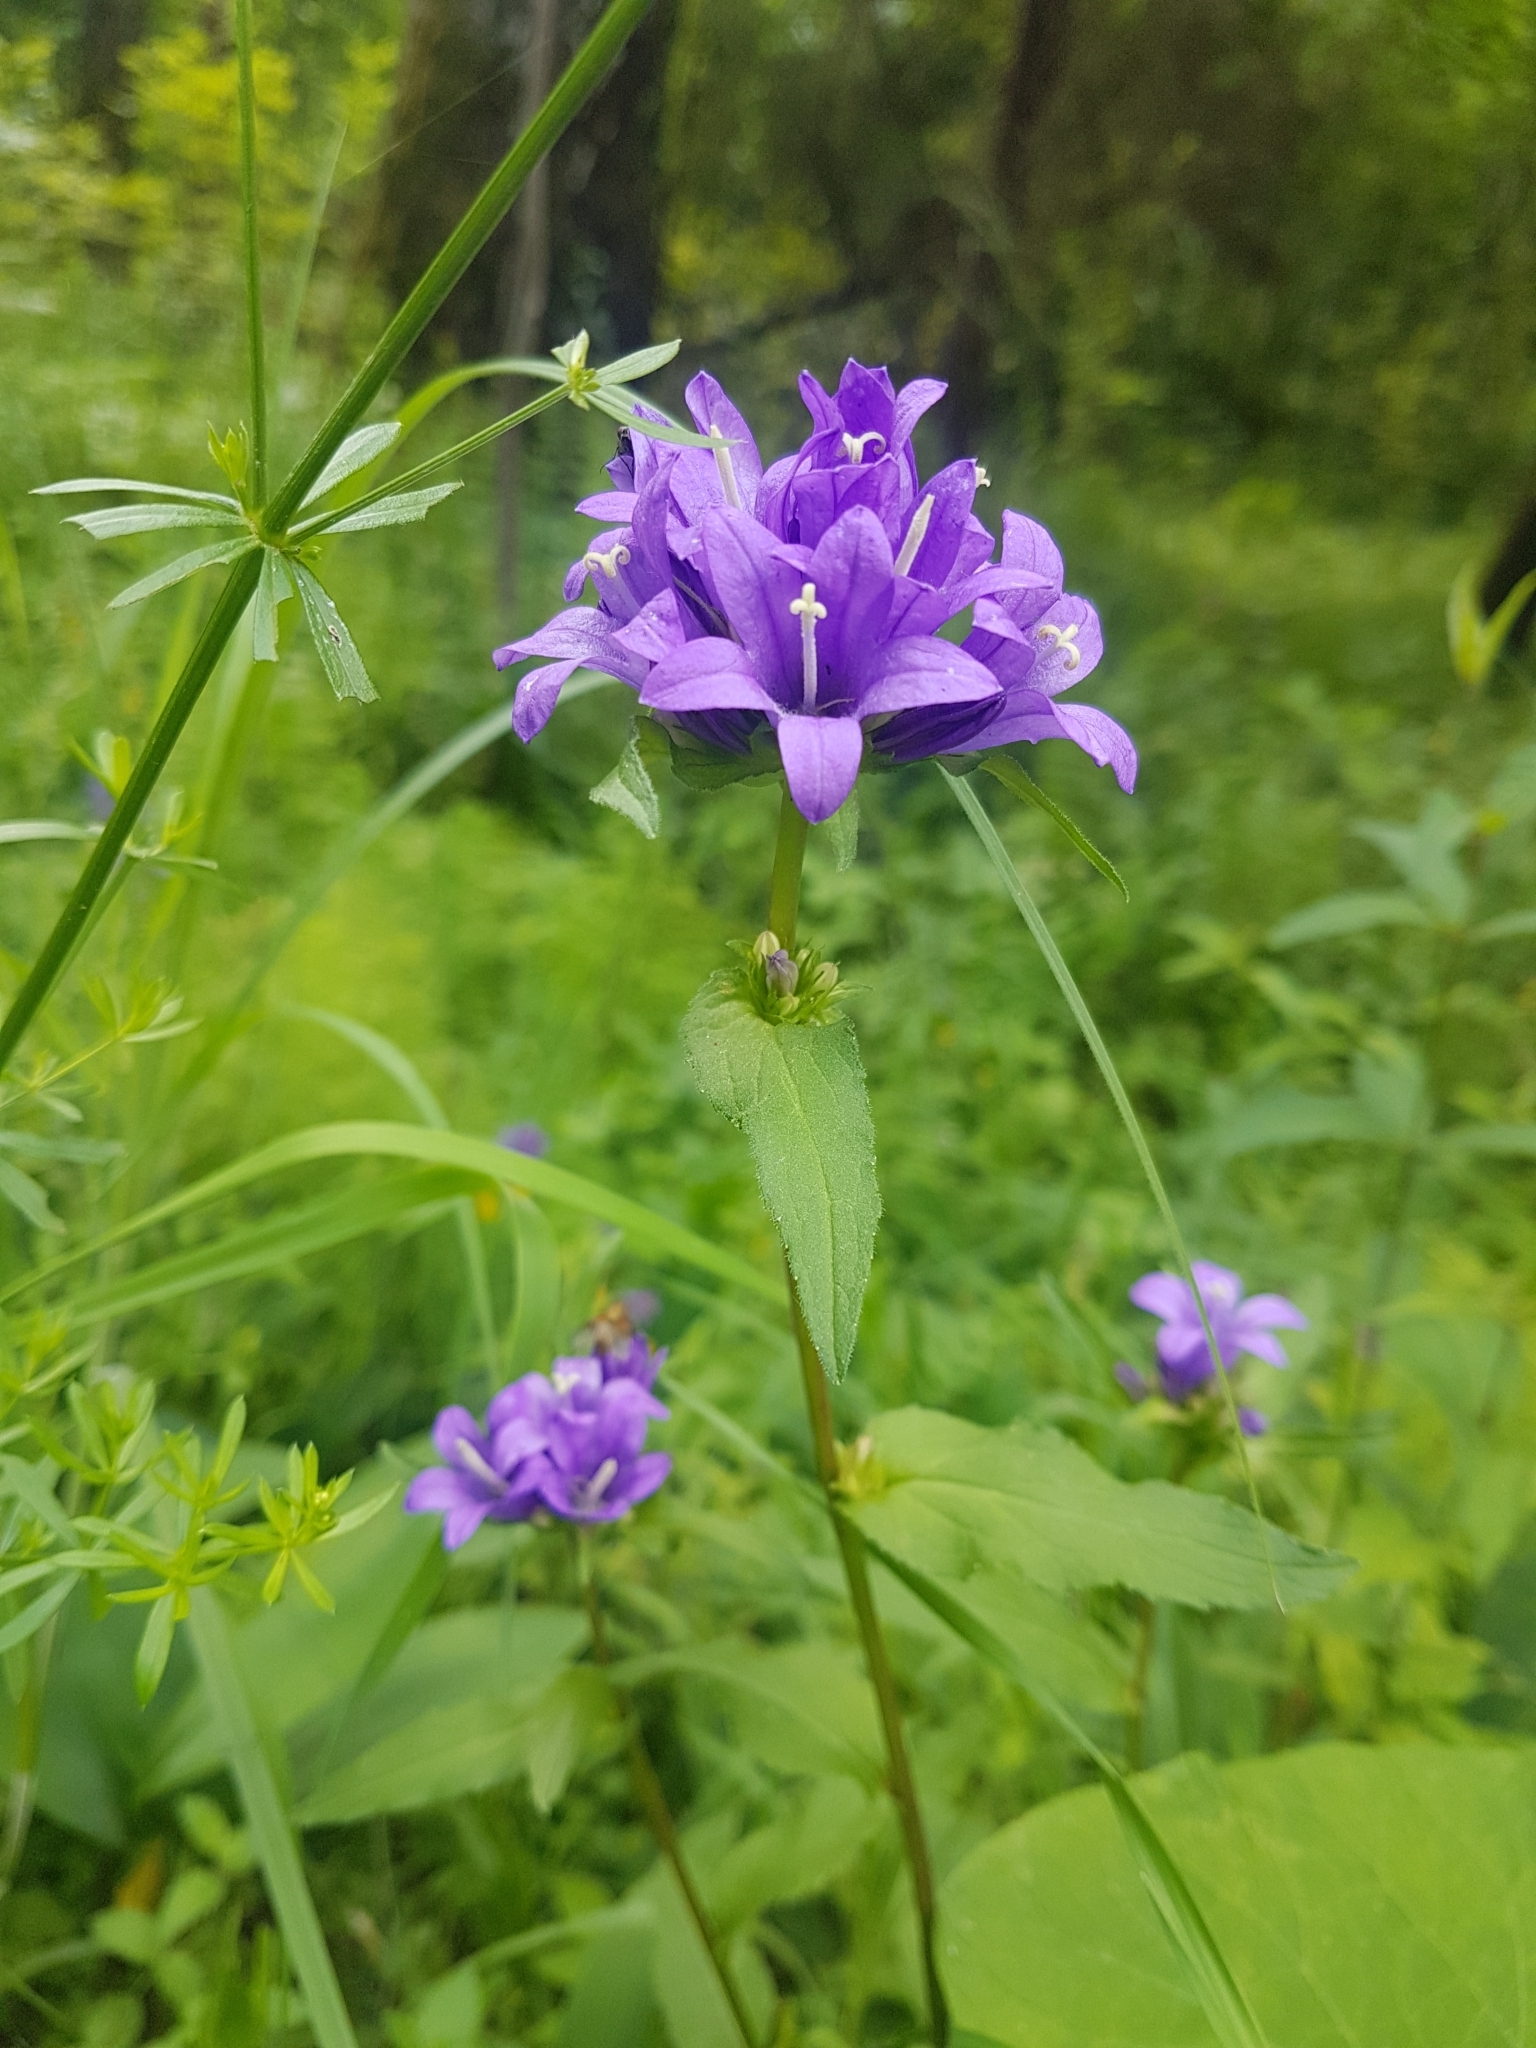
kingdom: Plantae
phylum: Tracheophyta
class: Magnoliopsida
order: Asterales
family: Campanulaceae
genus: Campanula
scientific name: Campanula glomerata
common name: Clustered bellflower
